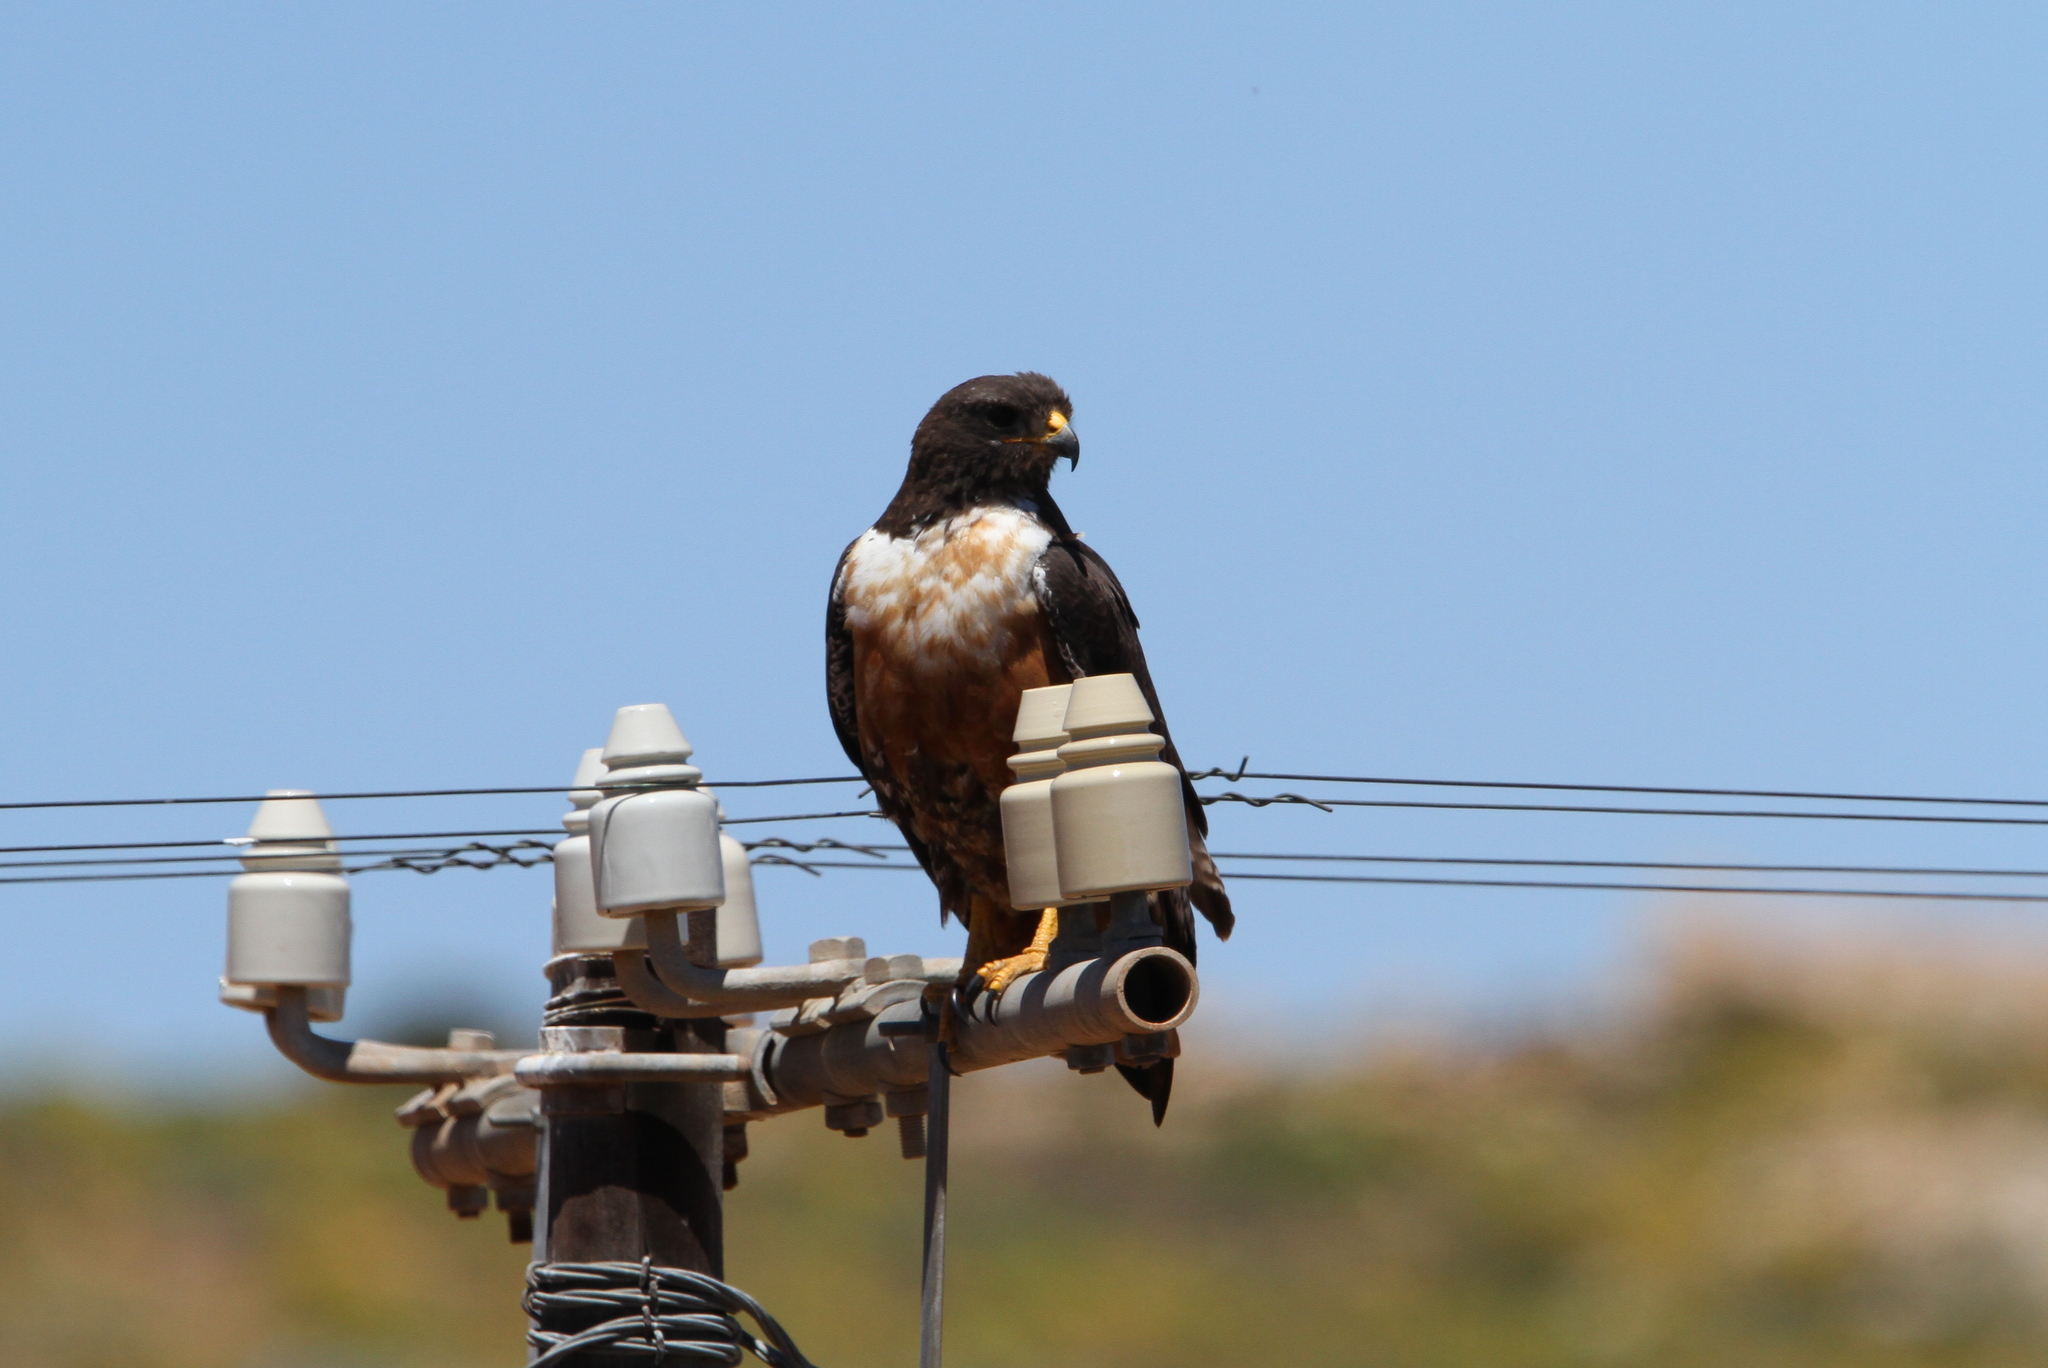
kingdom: Animalia
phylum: Chordata
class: Aves
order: Accipitriformes
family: Accipitridae
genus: Buteo
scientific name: Buteo rufofuscus
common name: Jackal buzzard
